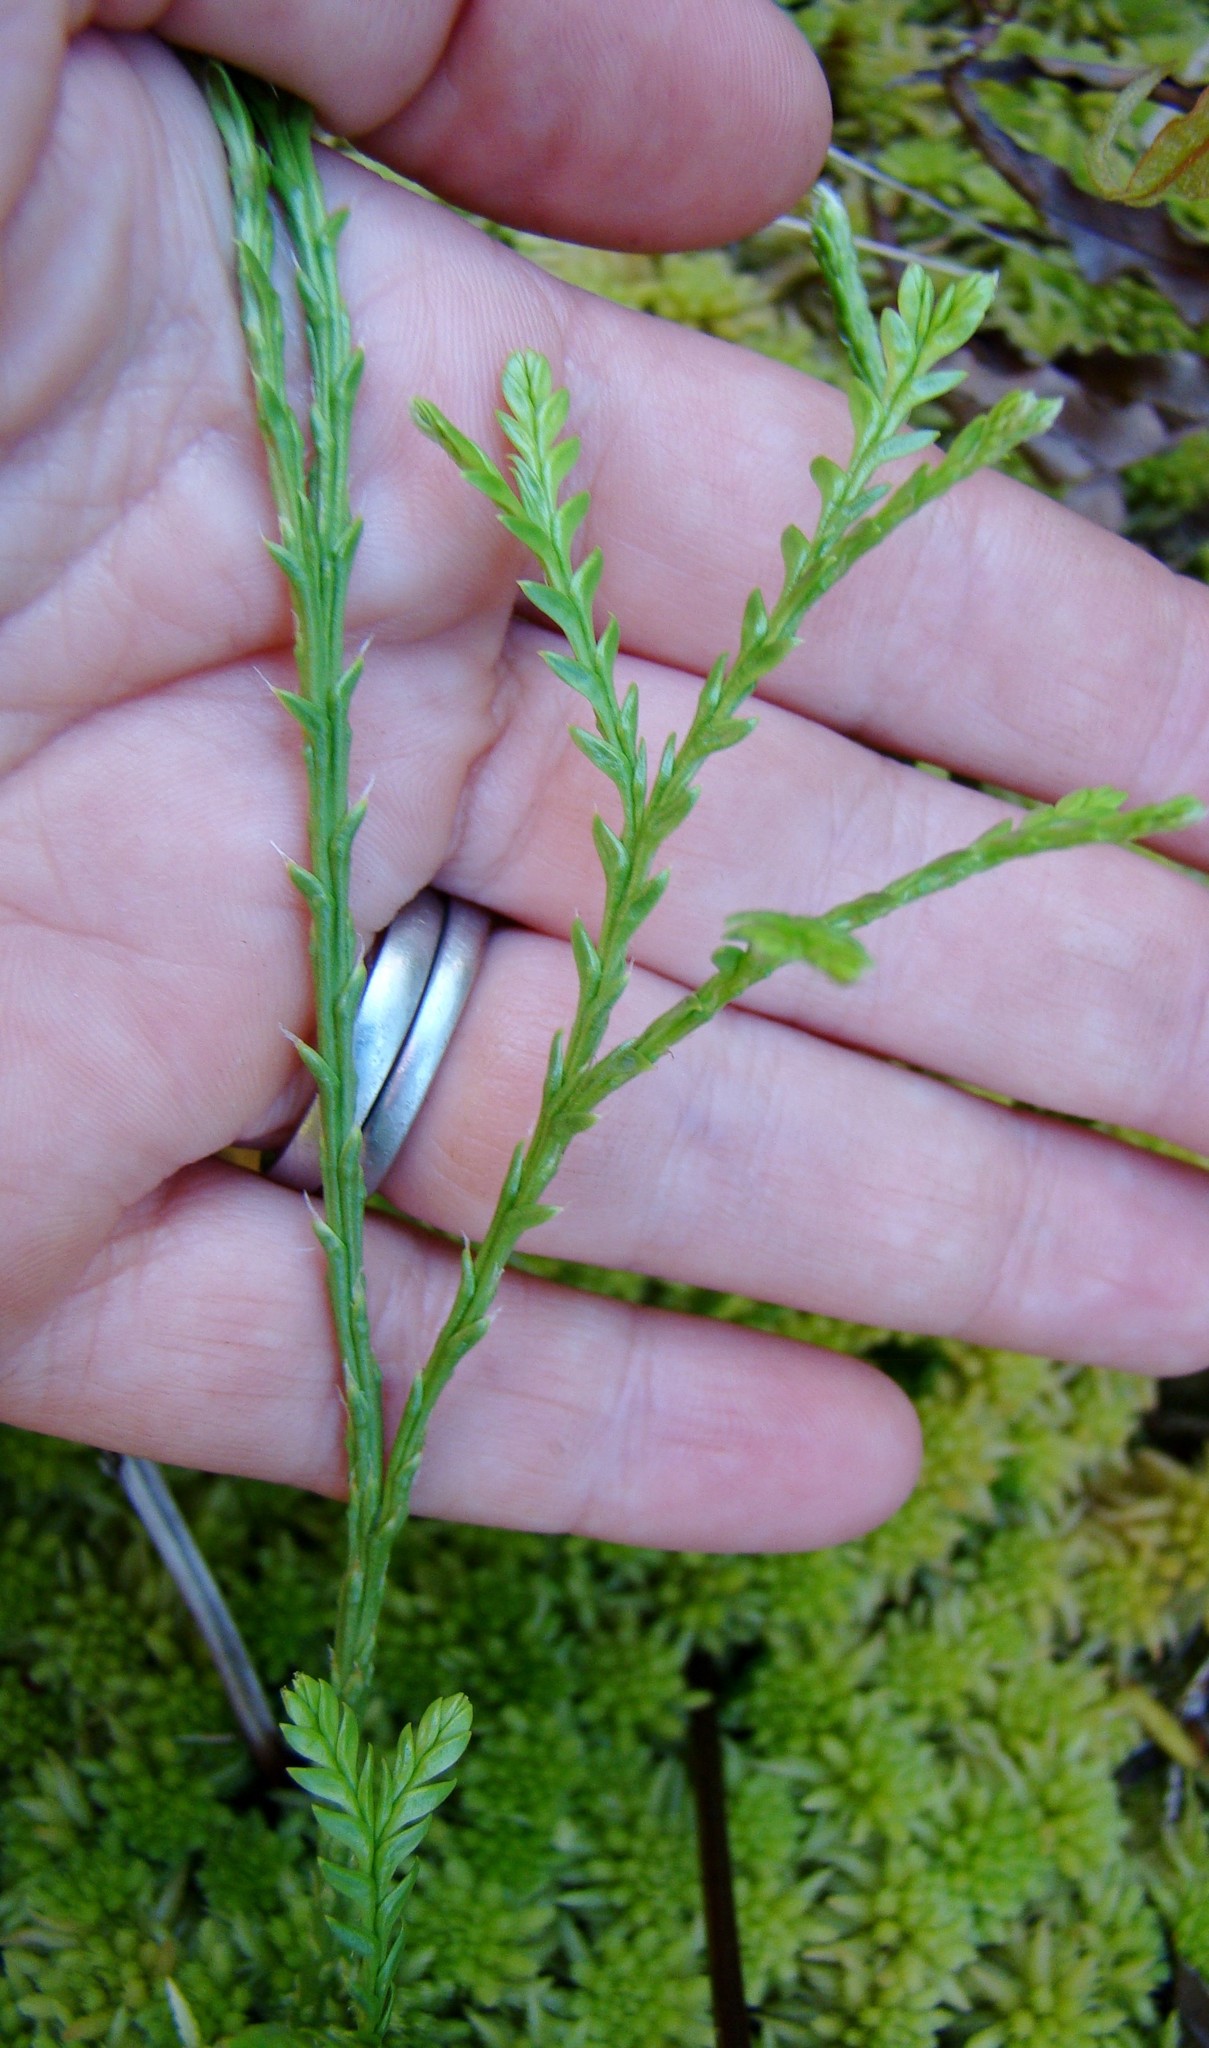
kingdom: Plantae
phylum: Tracheophyta
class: Lycopodiopsida
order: Lycopodiales
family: Lycopodiaceae
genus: Diphasium
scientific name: Diphasium scariosum
